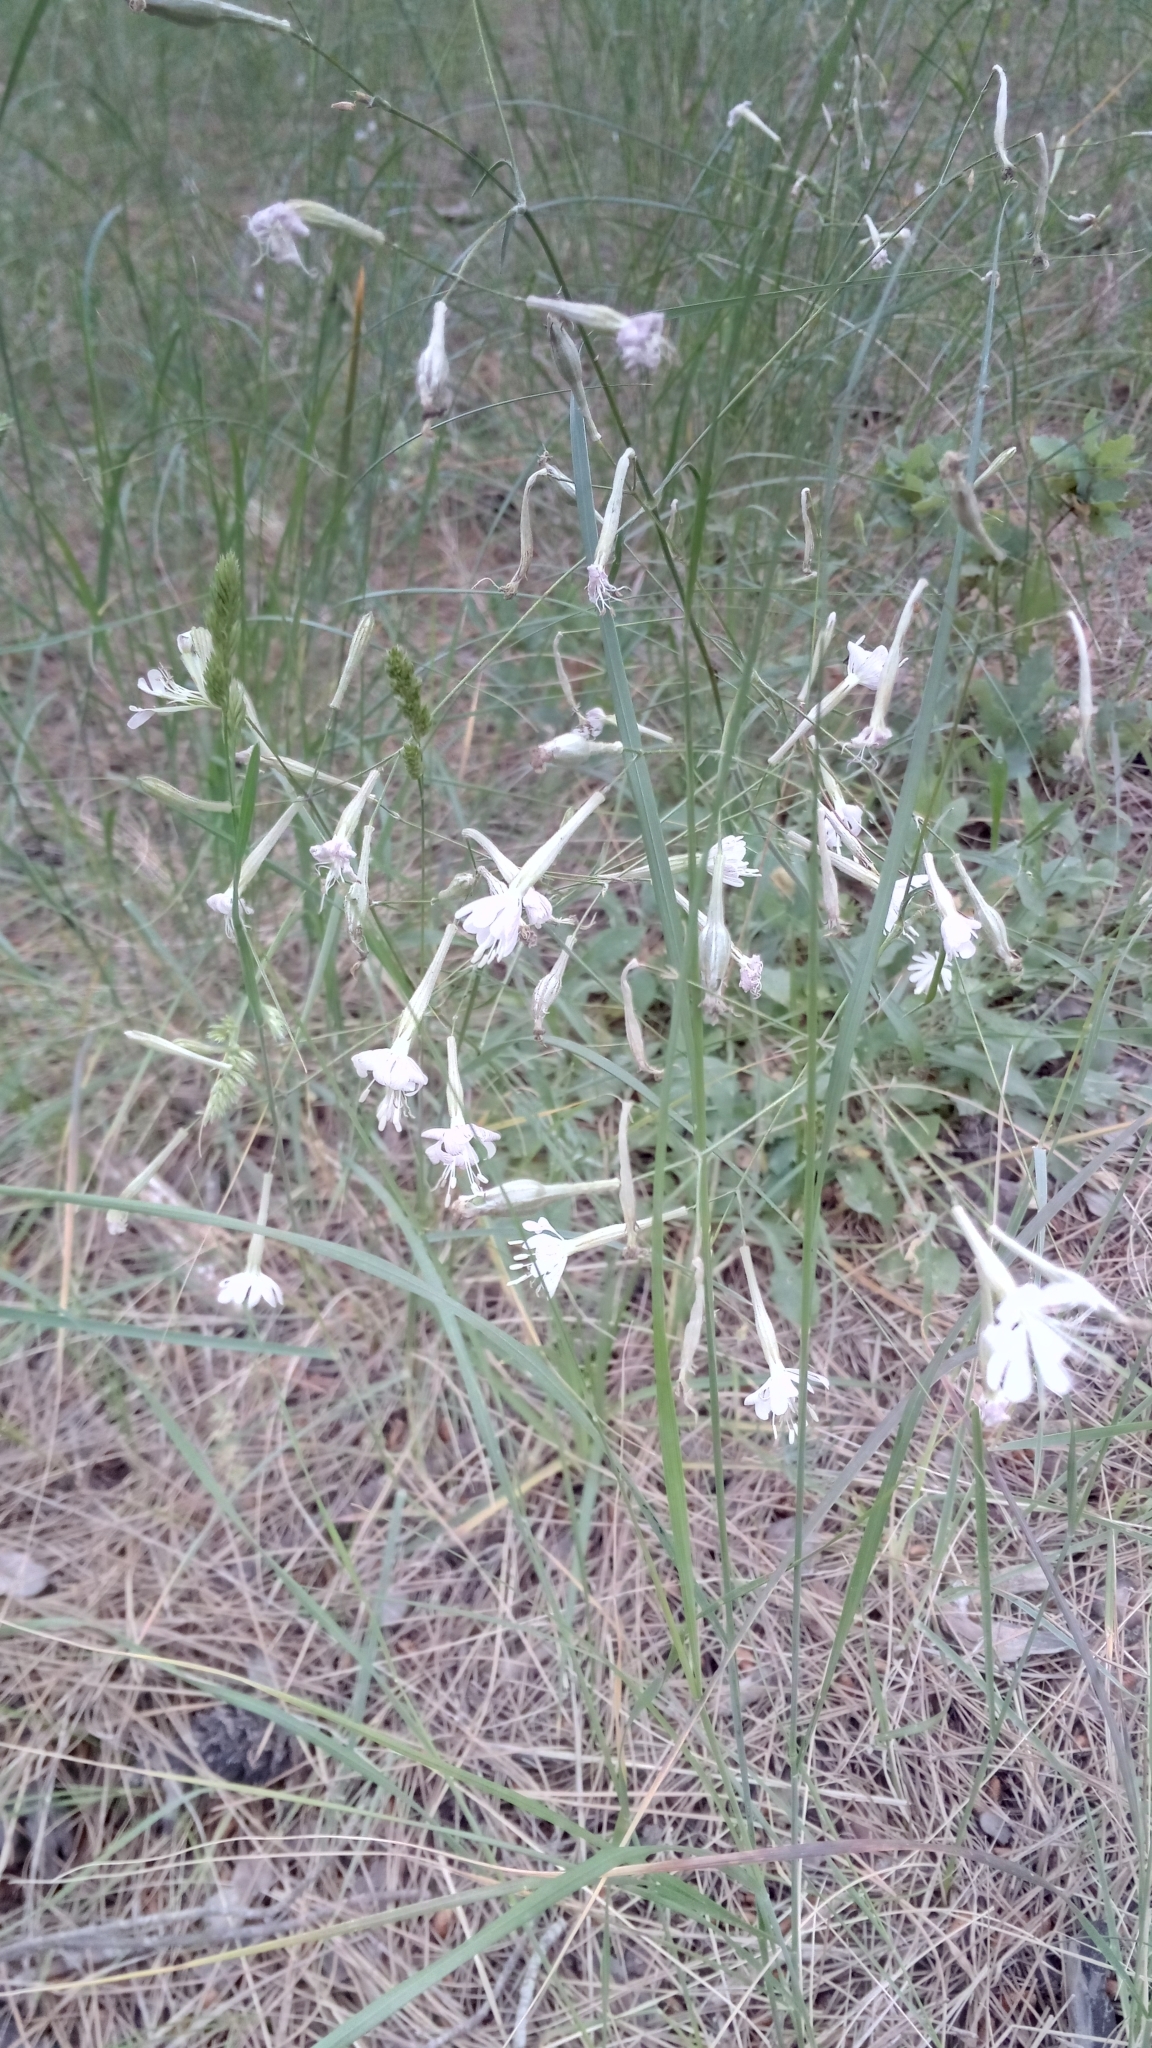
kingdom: Plantae
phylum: Tracheophyta
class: Magnoliopsida
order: Caryophyllales
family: Caryophyllaceae
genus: Silene
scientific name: Silene italica
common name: Italian catchfly
